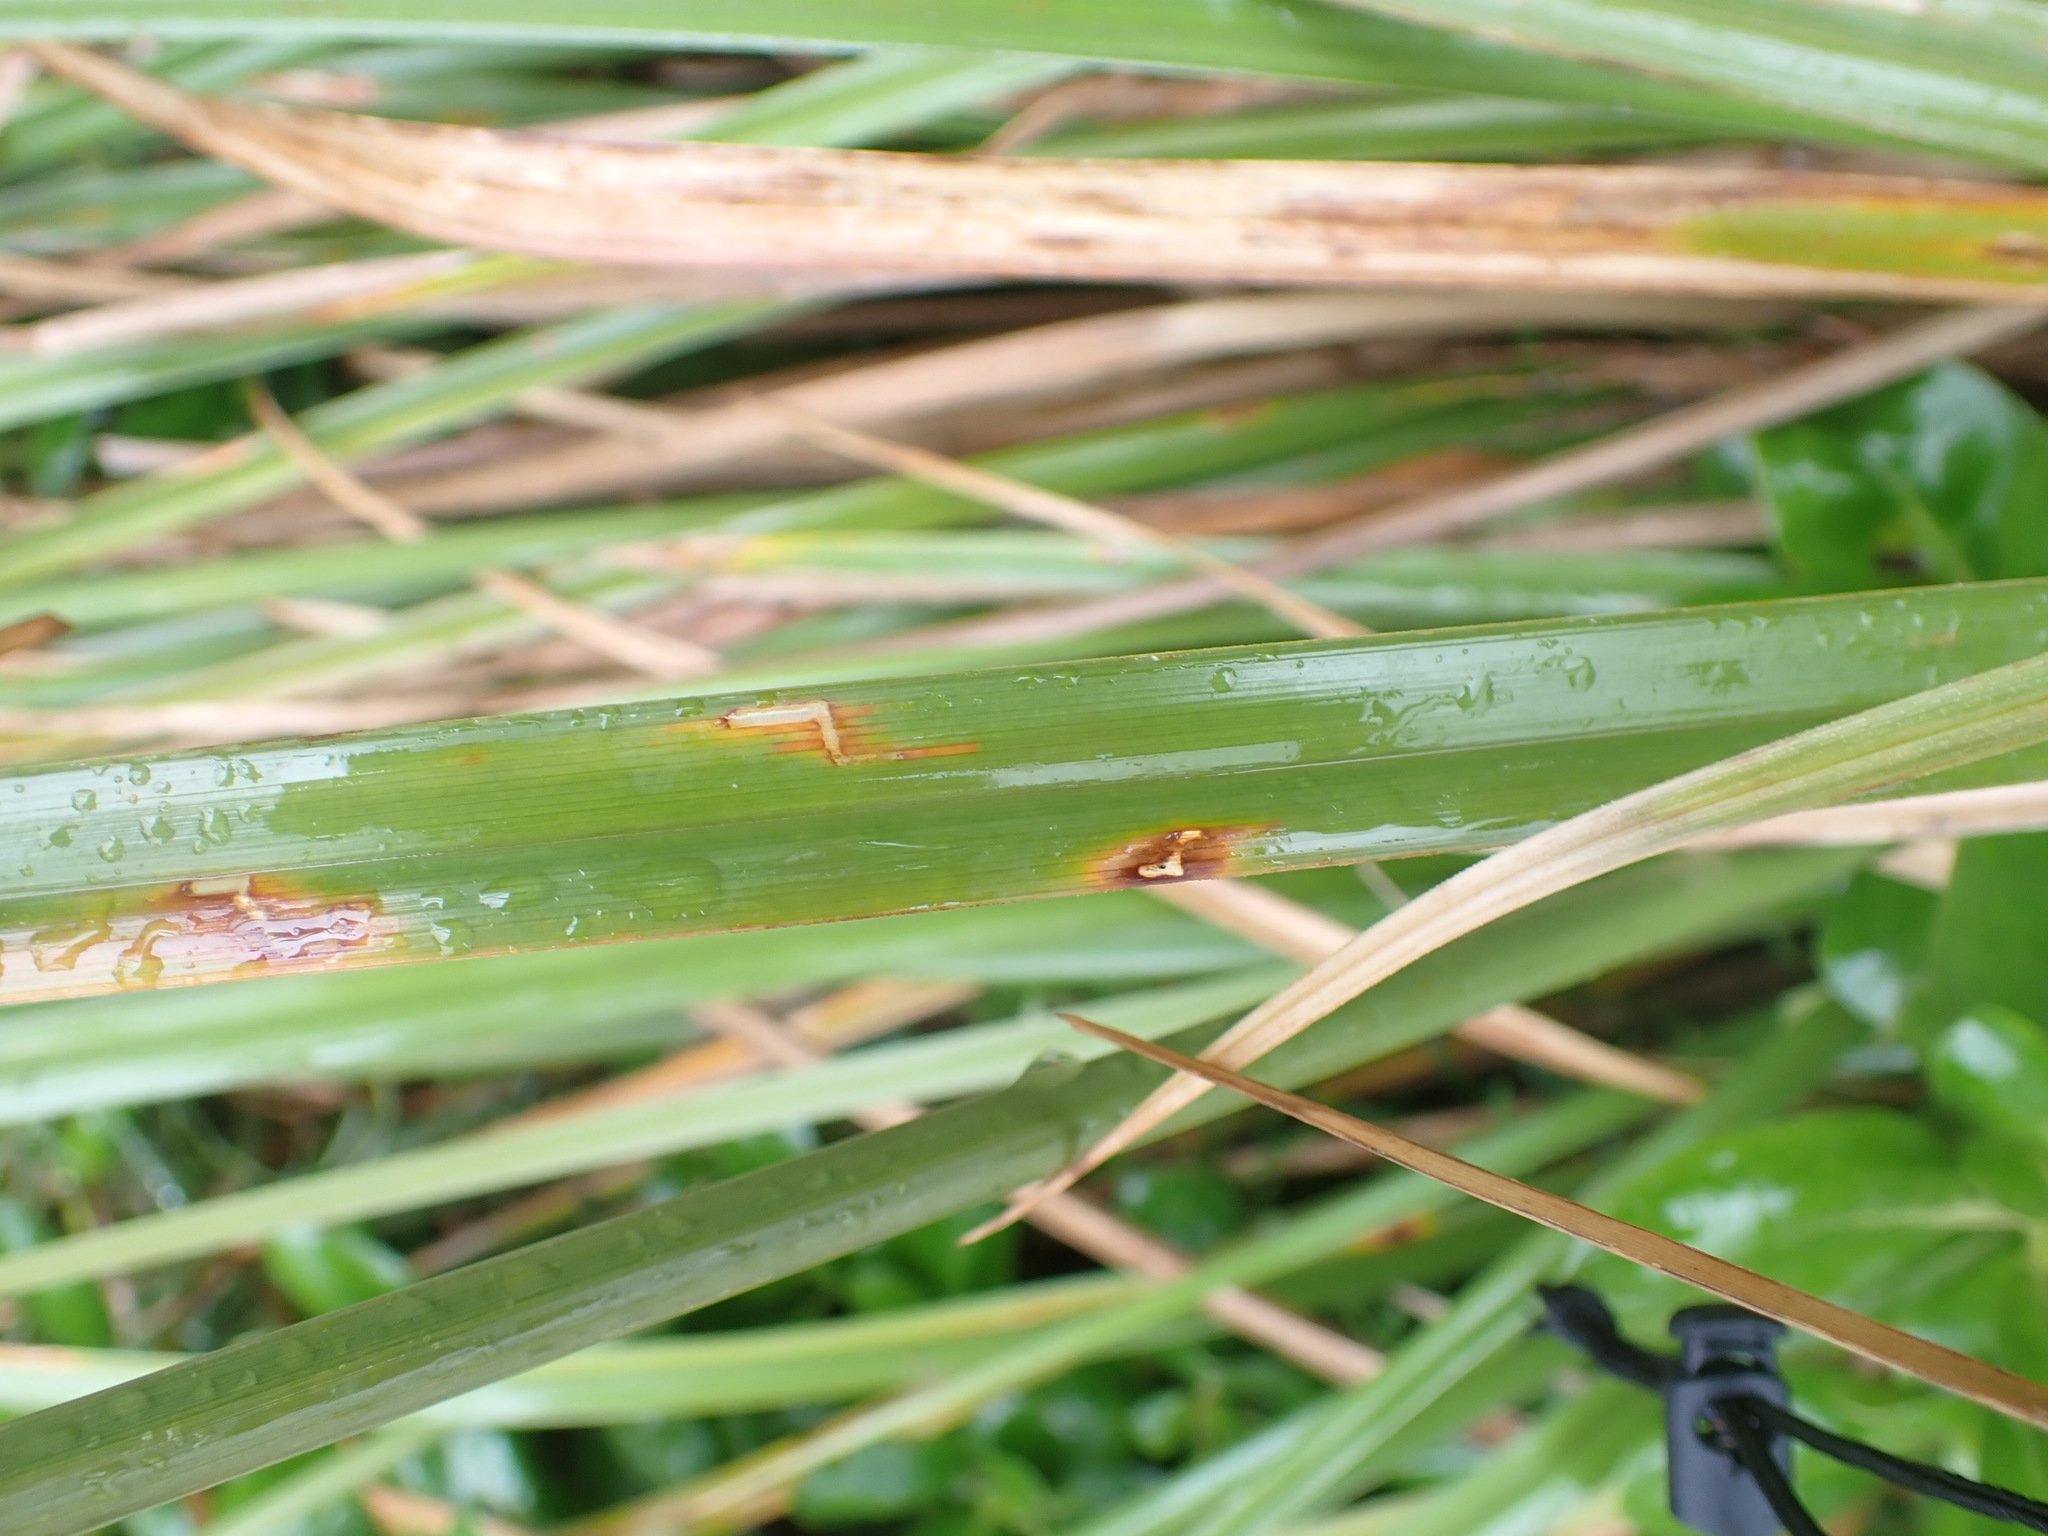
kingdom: Plantae
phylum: Tracheophyta
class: Liliopsida
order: Poales
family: Cyperaceae
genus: Cyperus
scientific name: Cyperus ustulatus
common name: Giant umbrella-sedge
